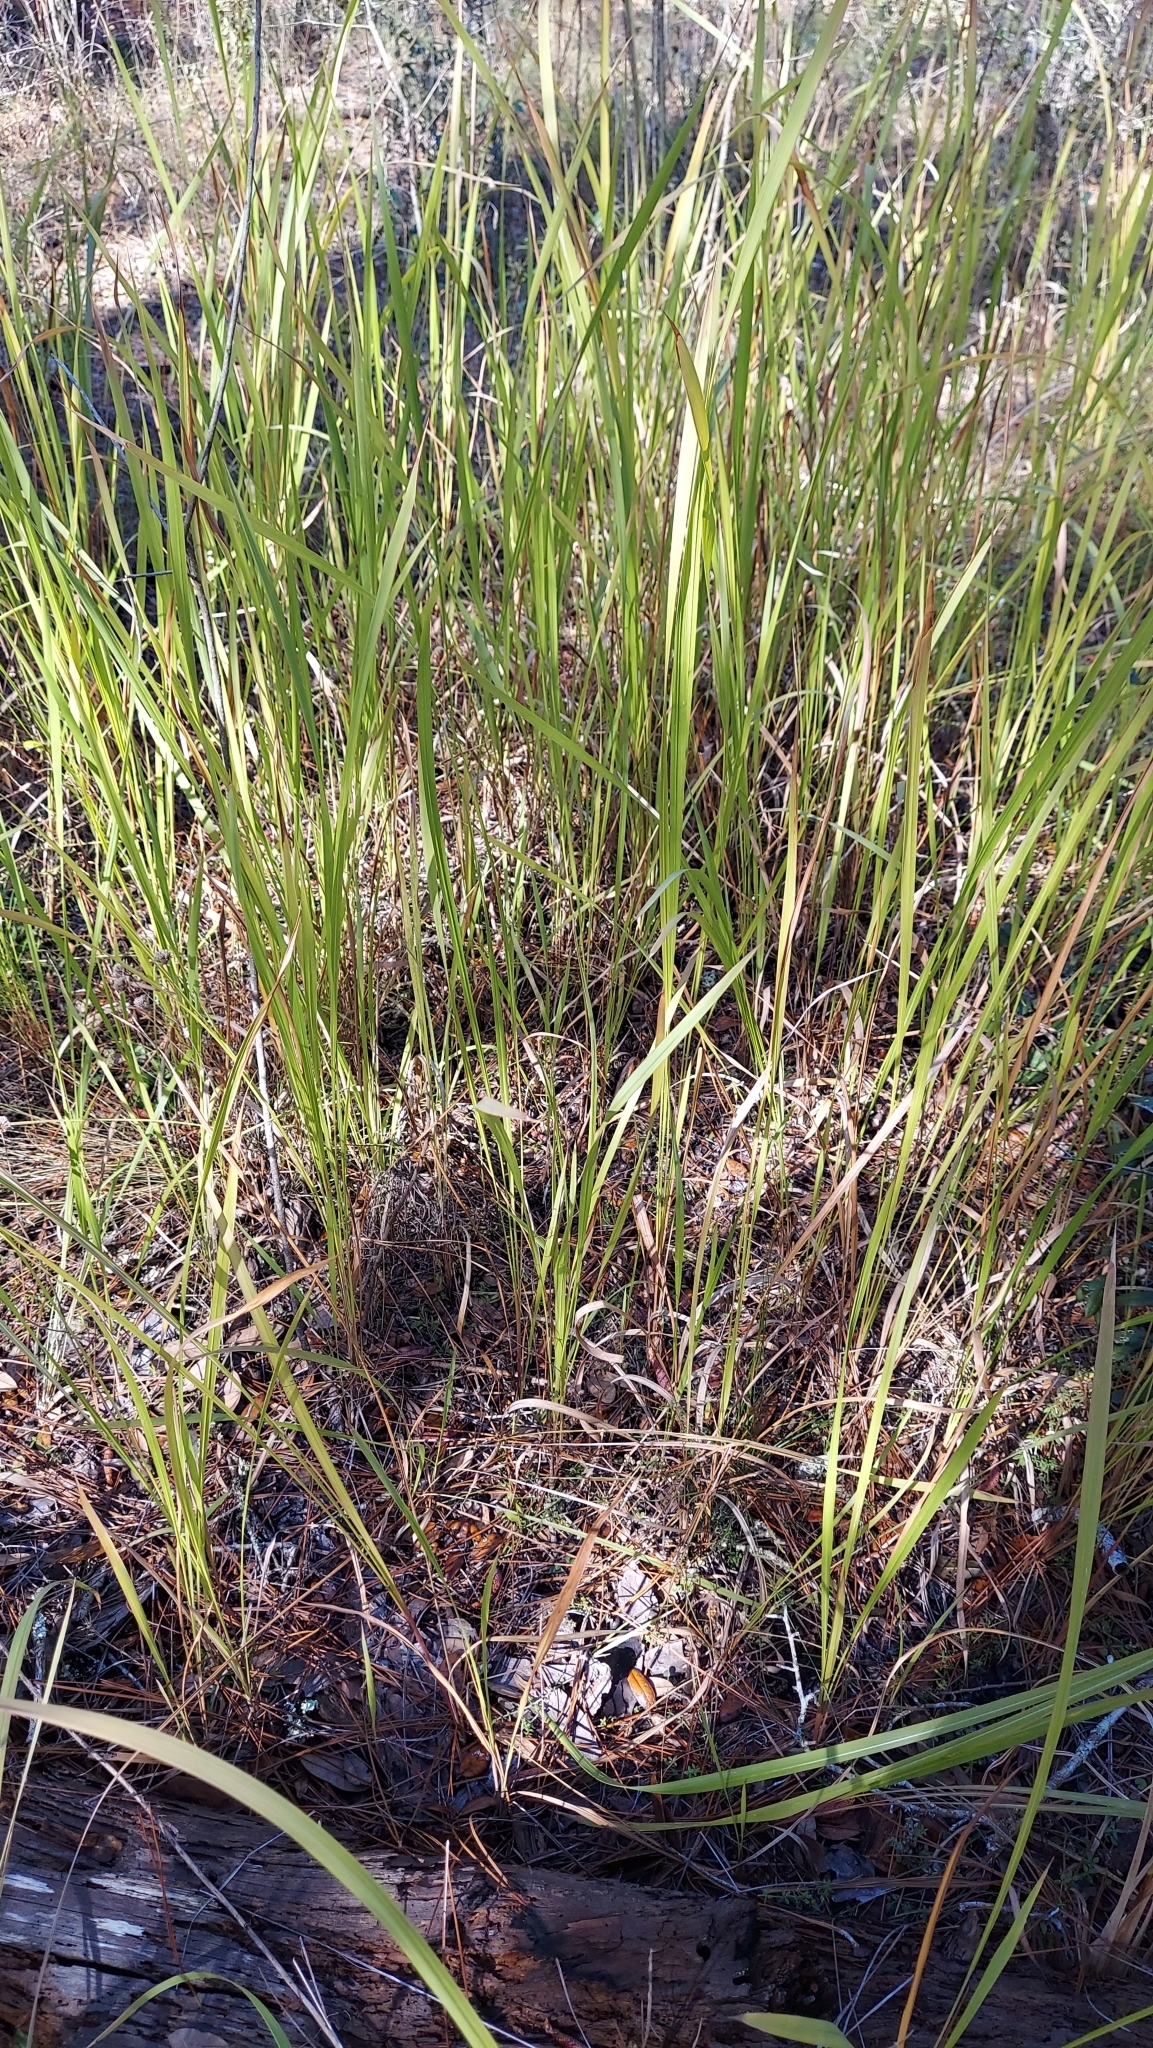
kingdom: Plantae
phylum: Tracheophyta
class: Liliopsida
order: Poales
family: Poaceae
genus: Imperata
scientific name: Imperata cylindrica
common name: Cogongrass
